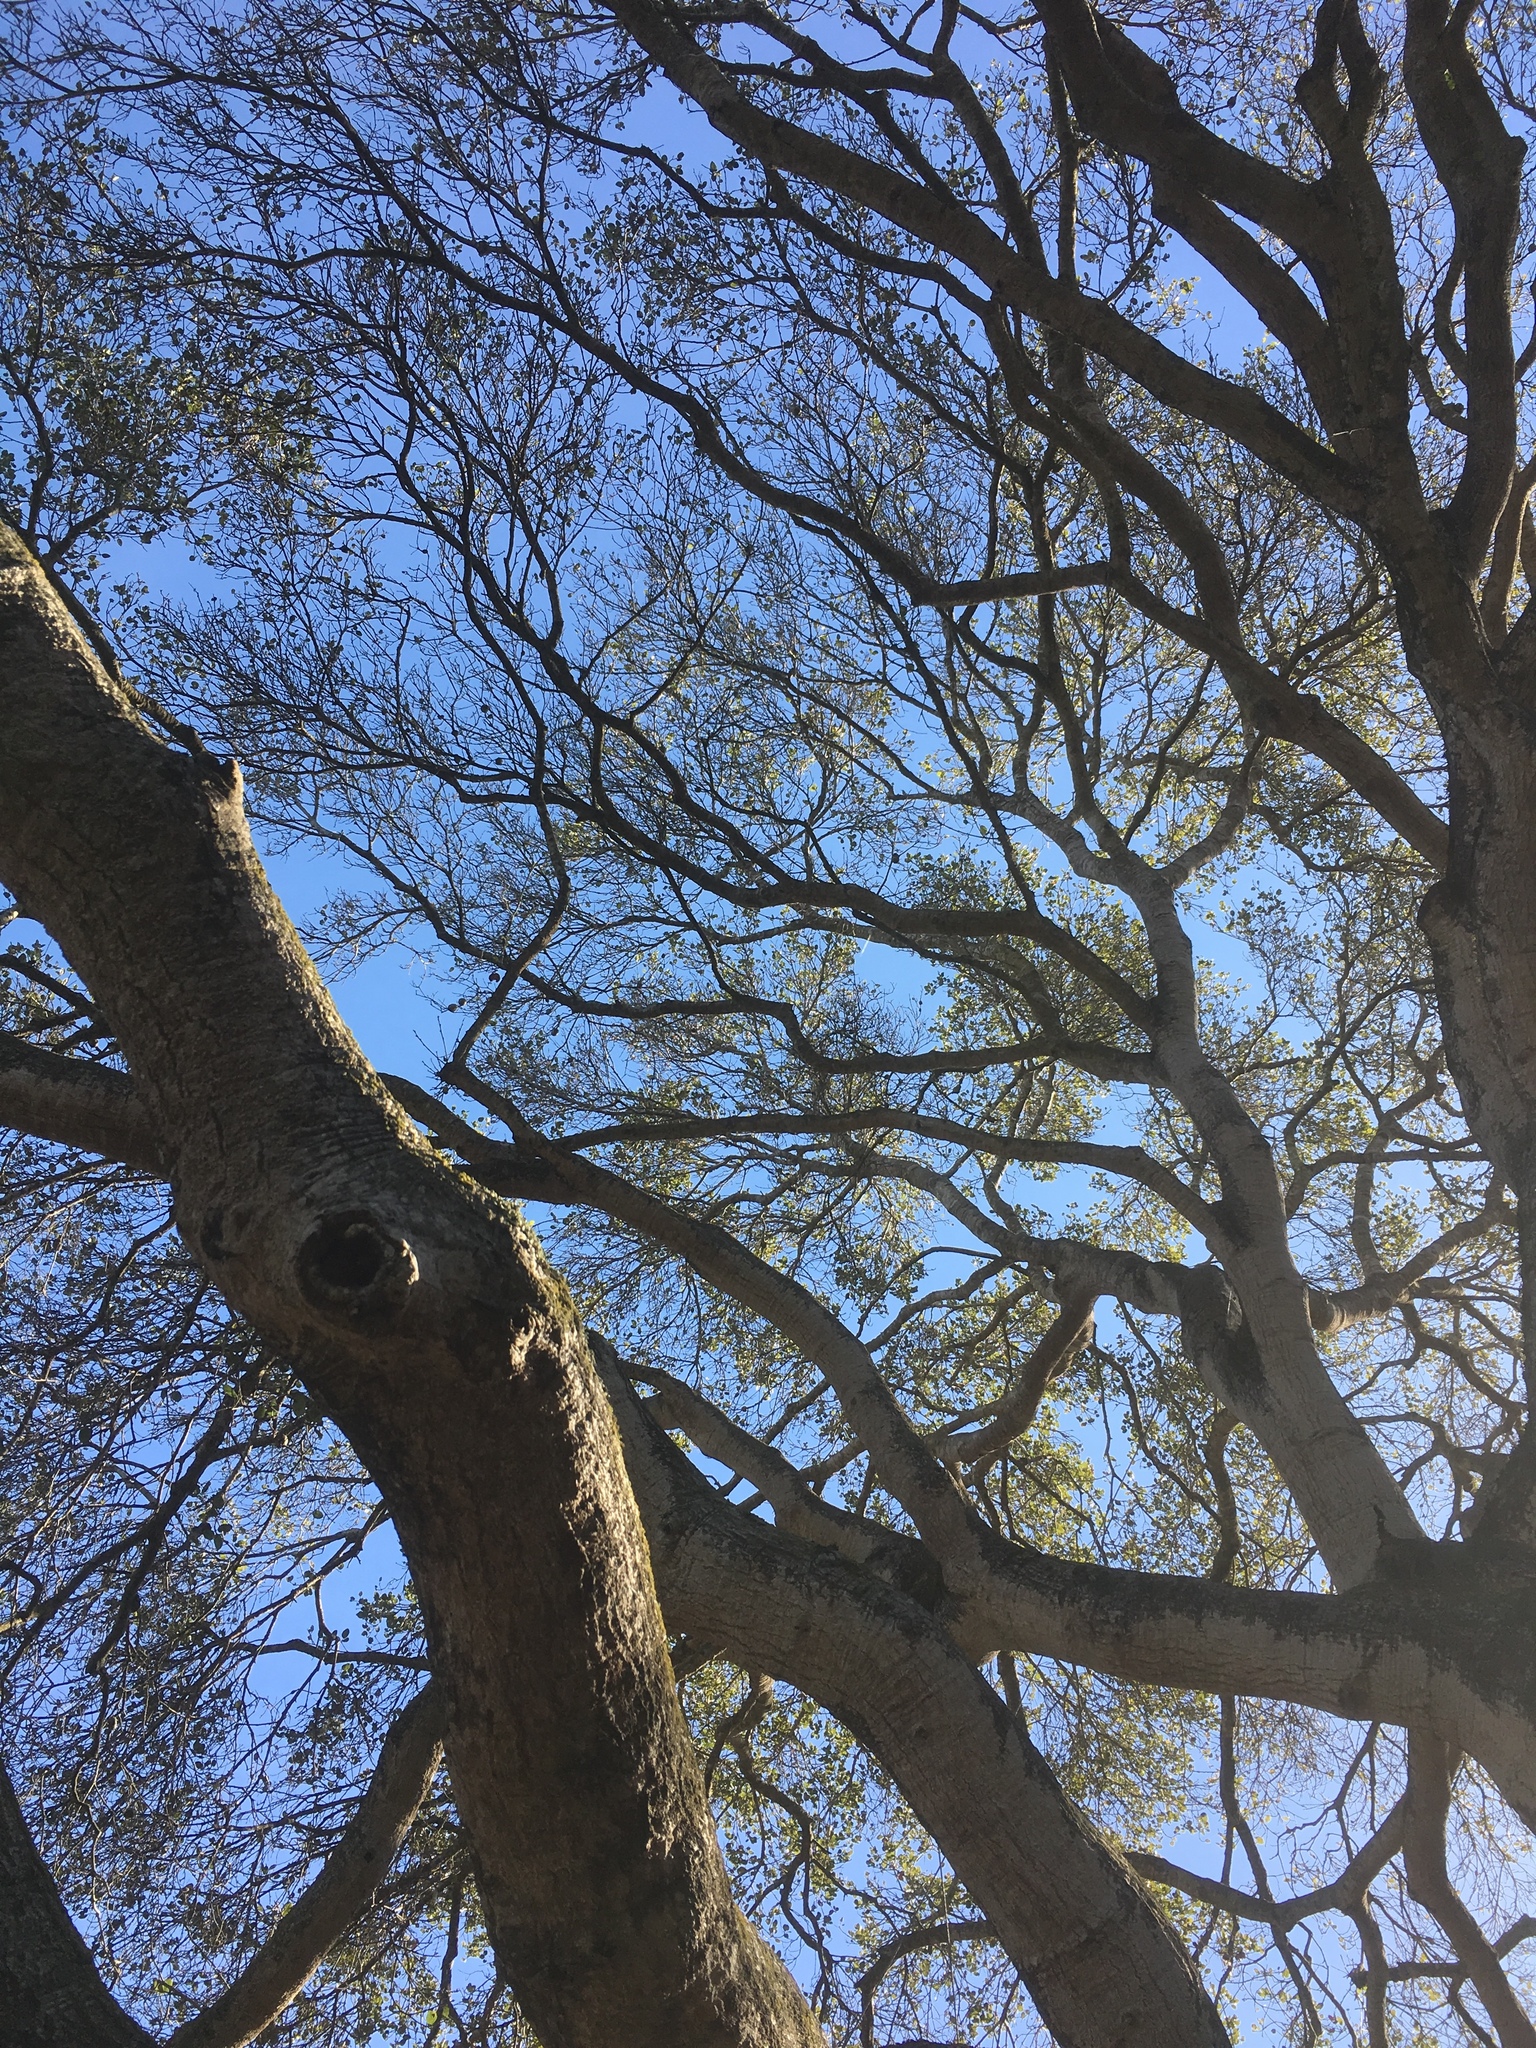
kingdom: Plantae
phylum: Tracheophyta
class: Magnoliopsida
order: Fagales
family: Fagaceae
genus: Quercus
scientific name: Quercus agrifolia
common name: California live oak
